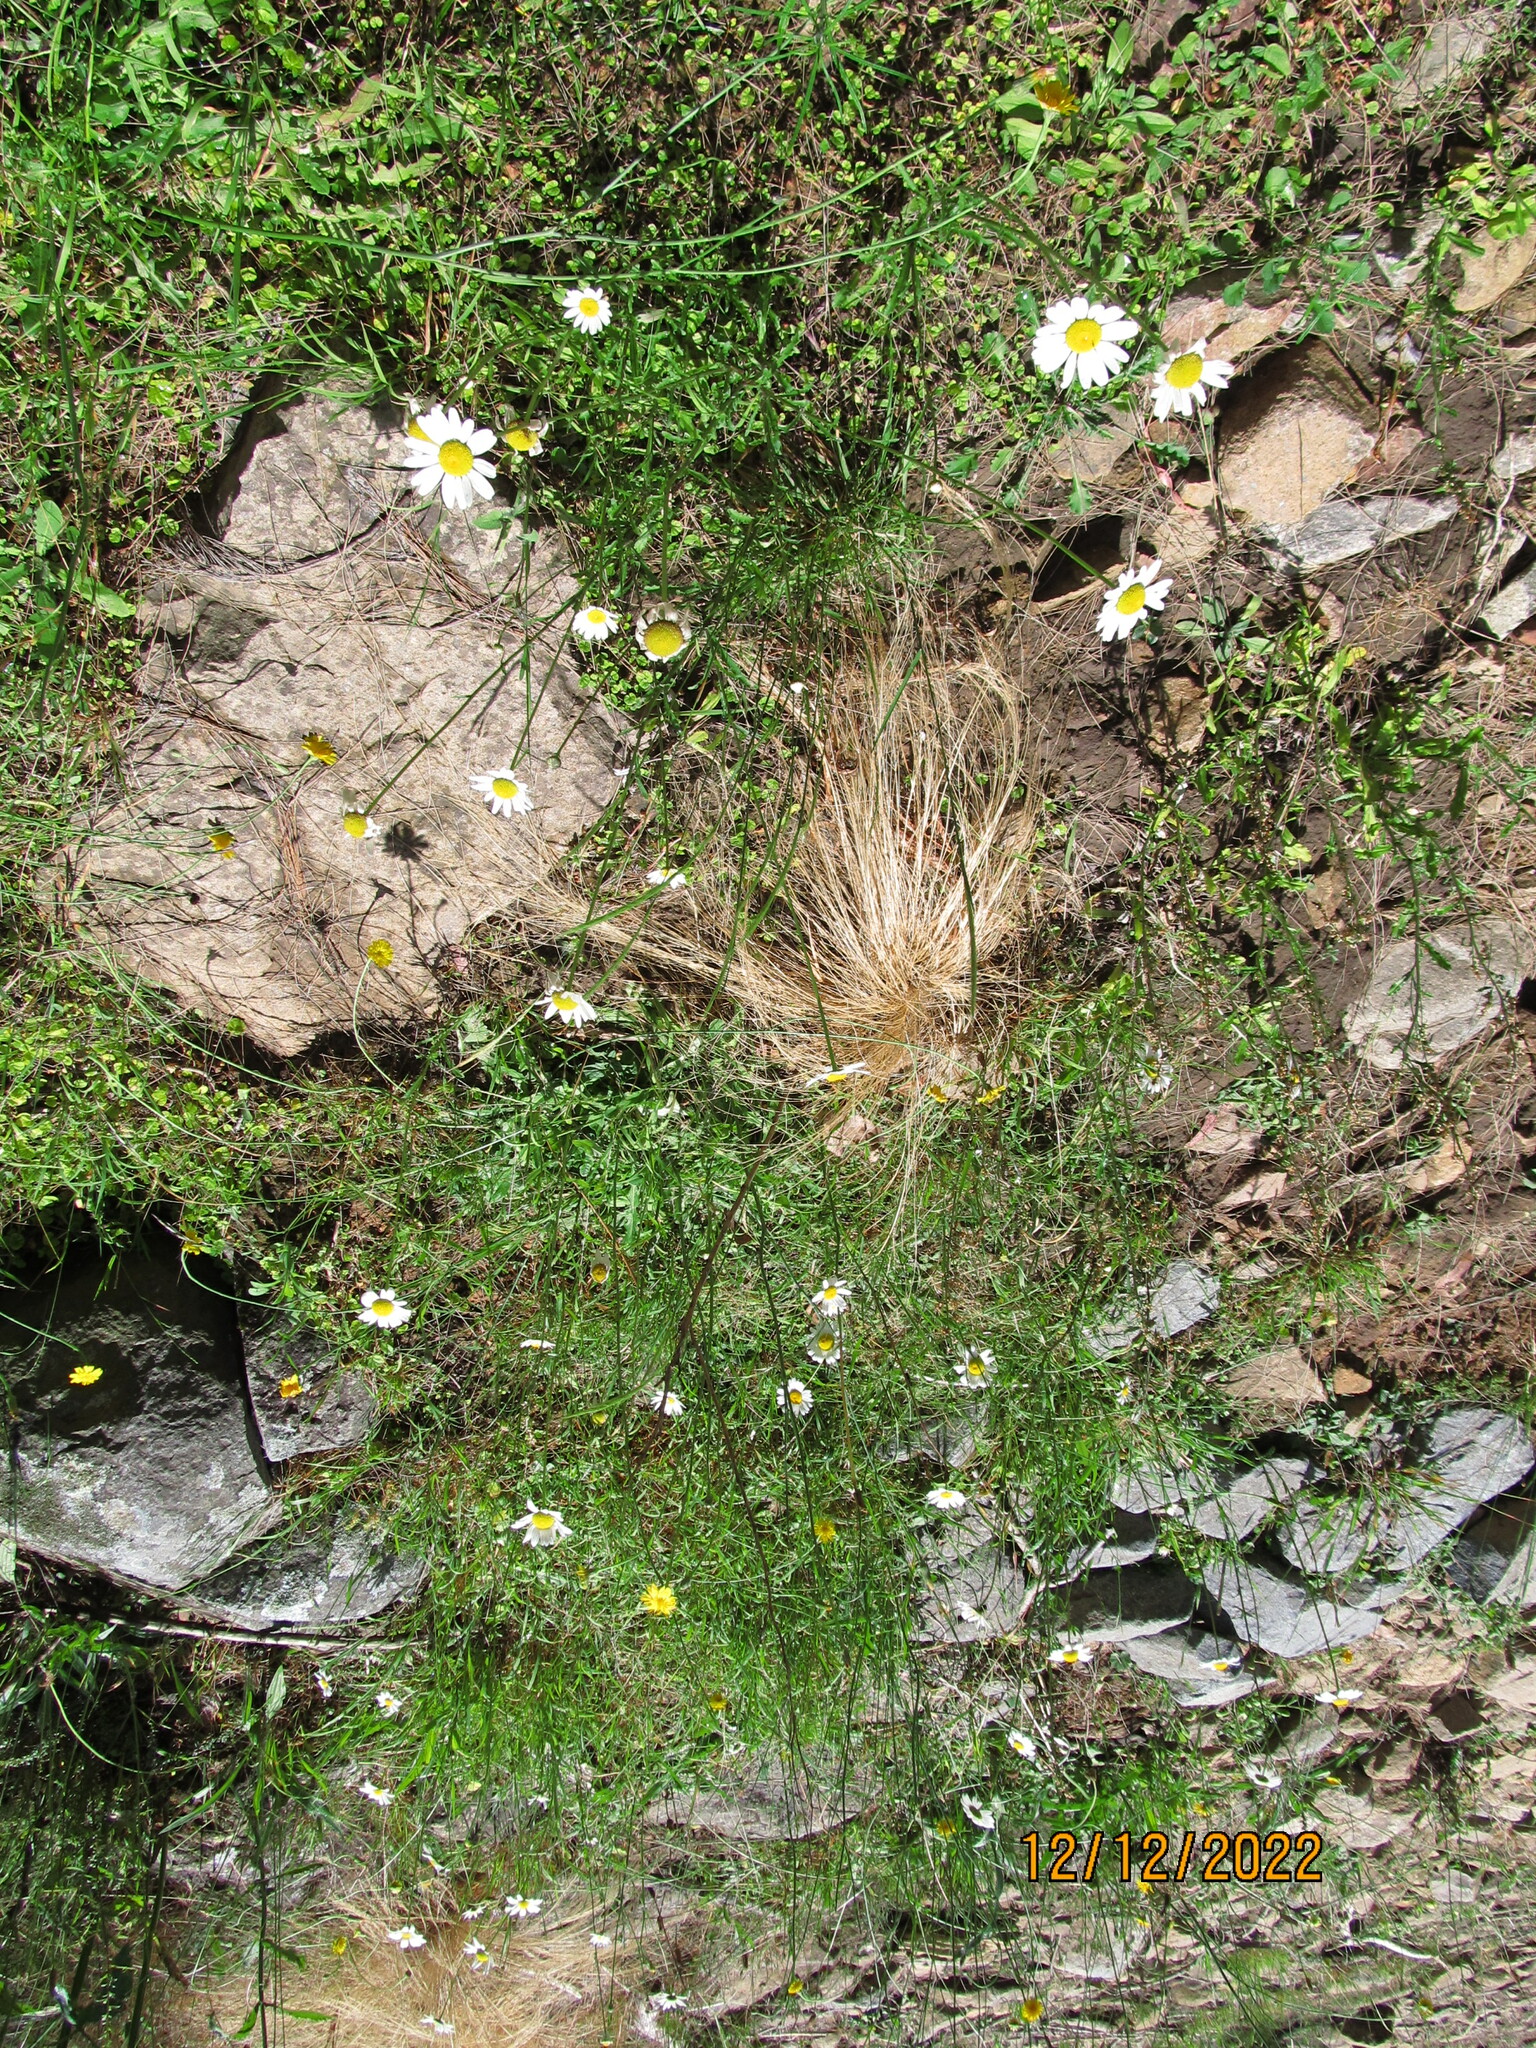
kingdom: Plantae
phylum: Tracheophyta
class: Magnoliopsida
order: Asterales
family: Asteraceae
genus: Leucanthemum
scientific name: Leucanthemum vulgare
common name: Oxeye daisy
